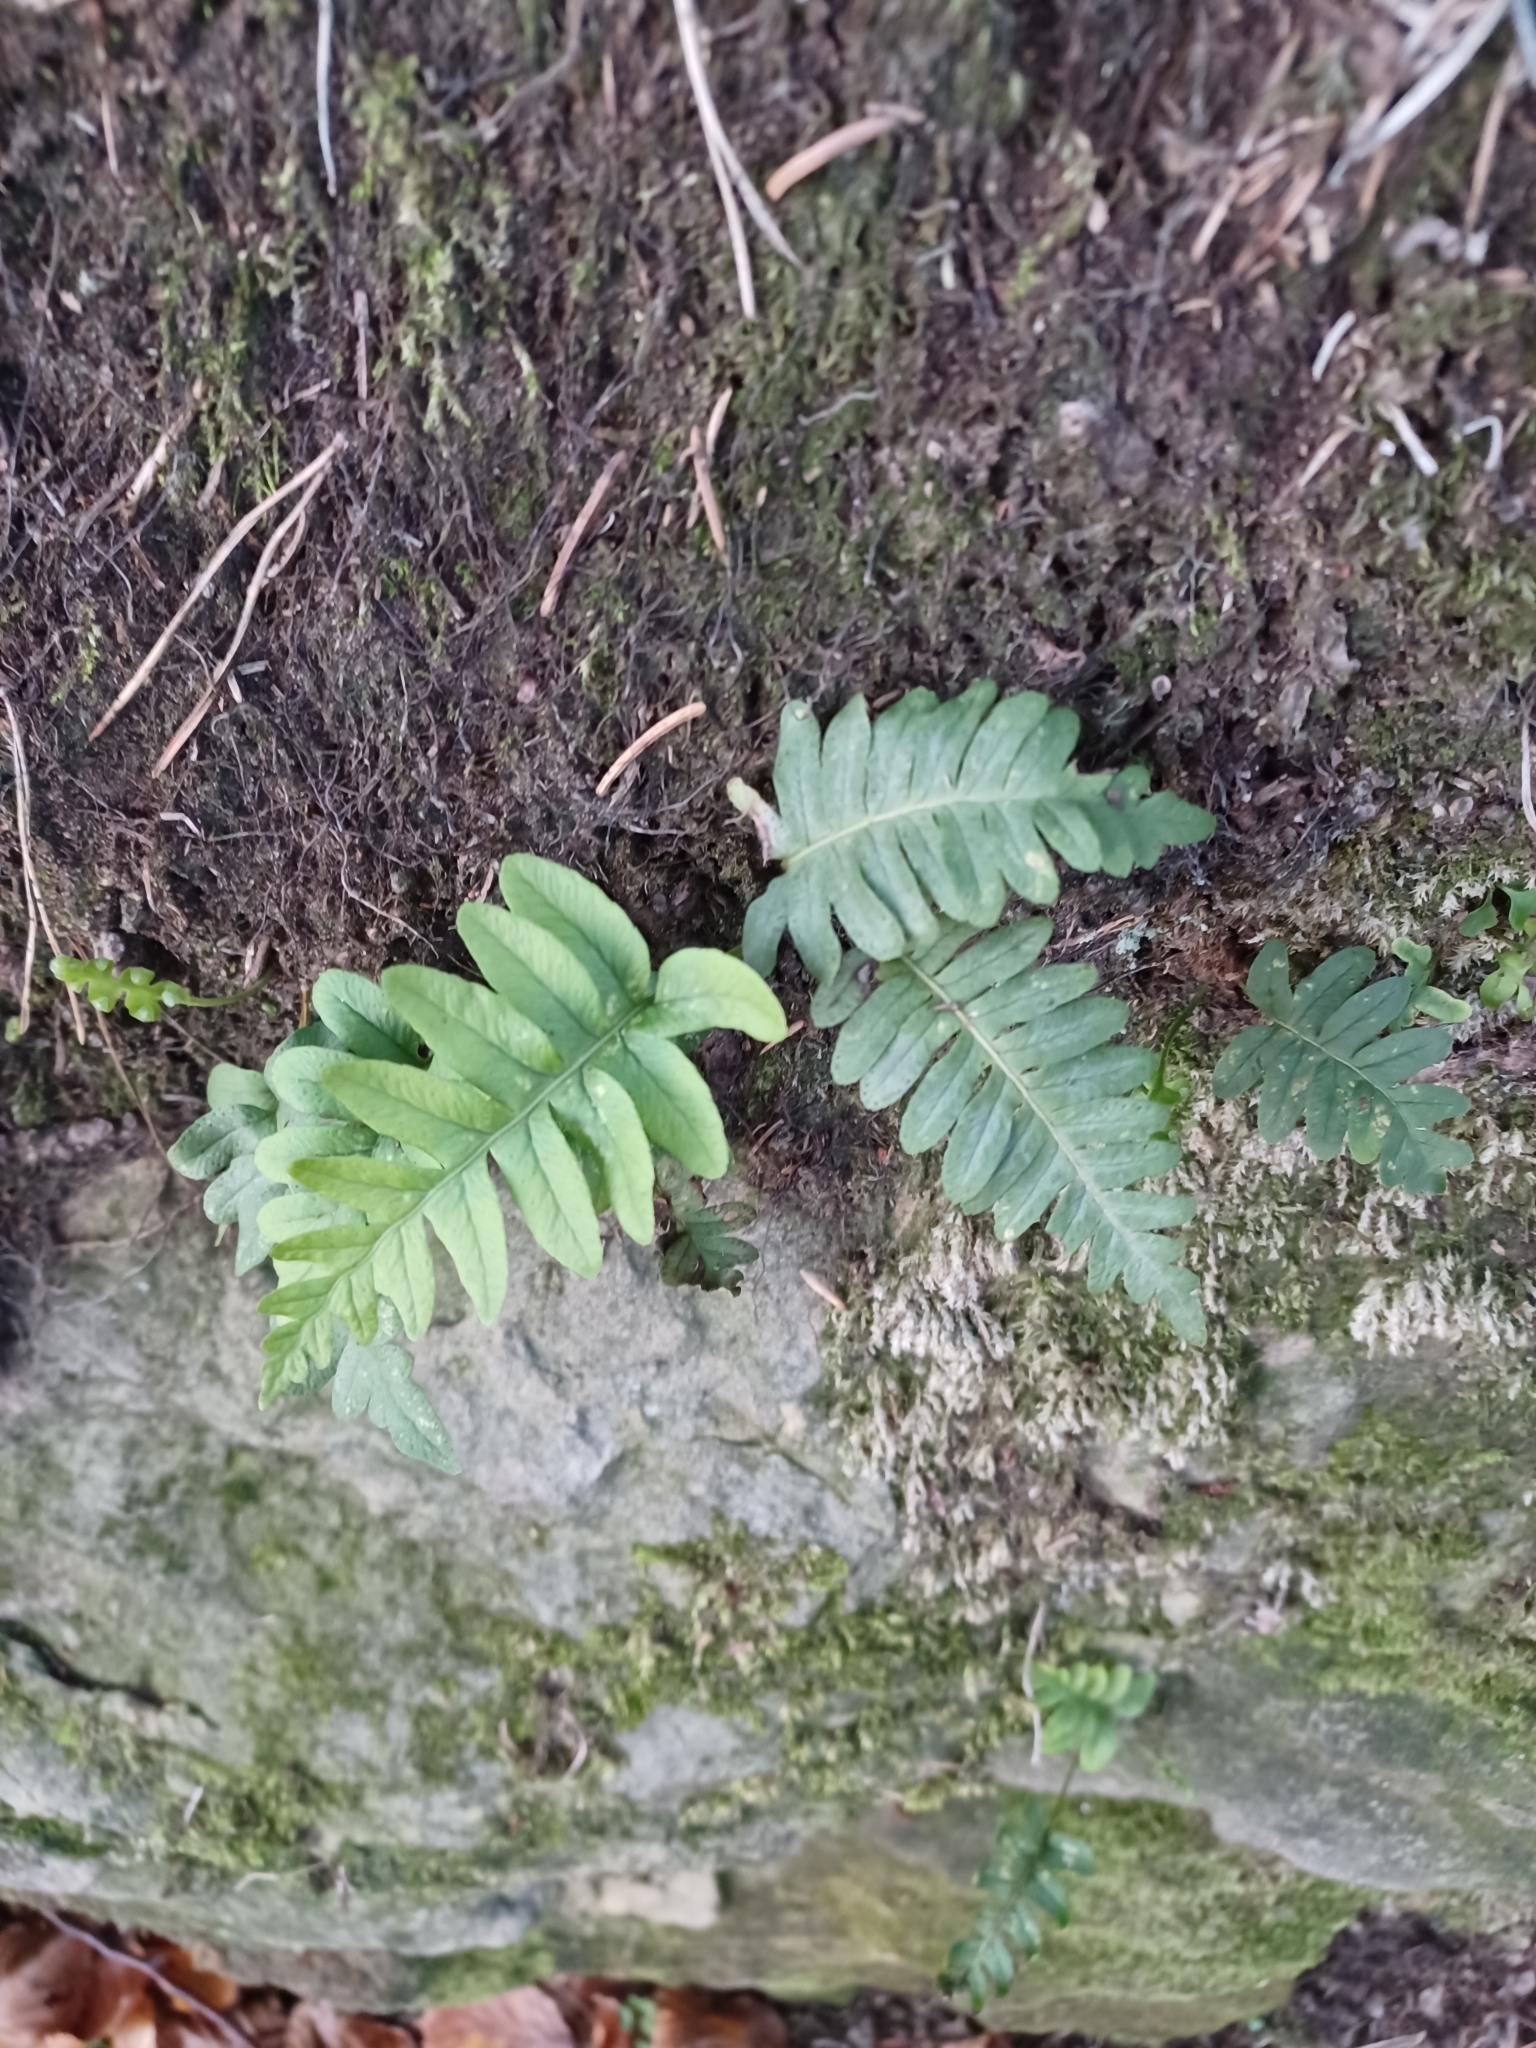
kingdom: Plantae
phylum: Tracheophyta
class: Polypodiopsida
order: Polypodiales
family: Polypodiaceae
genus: Polypodium
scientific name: Polypodium vulgare
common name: Common polypody
